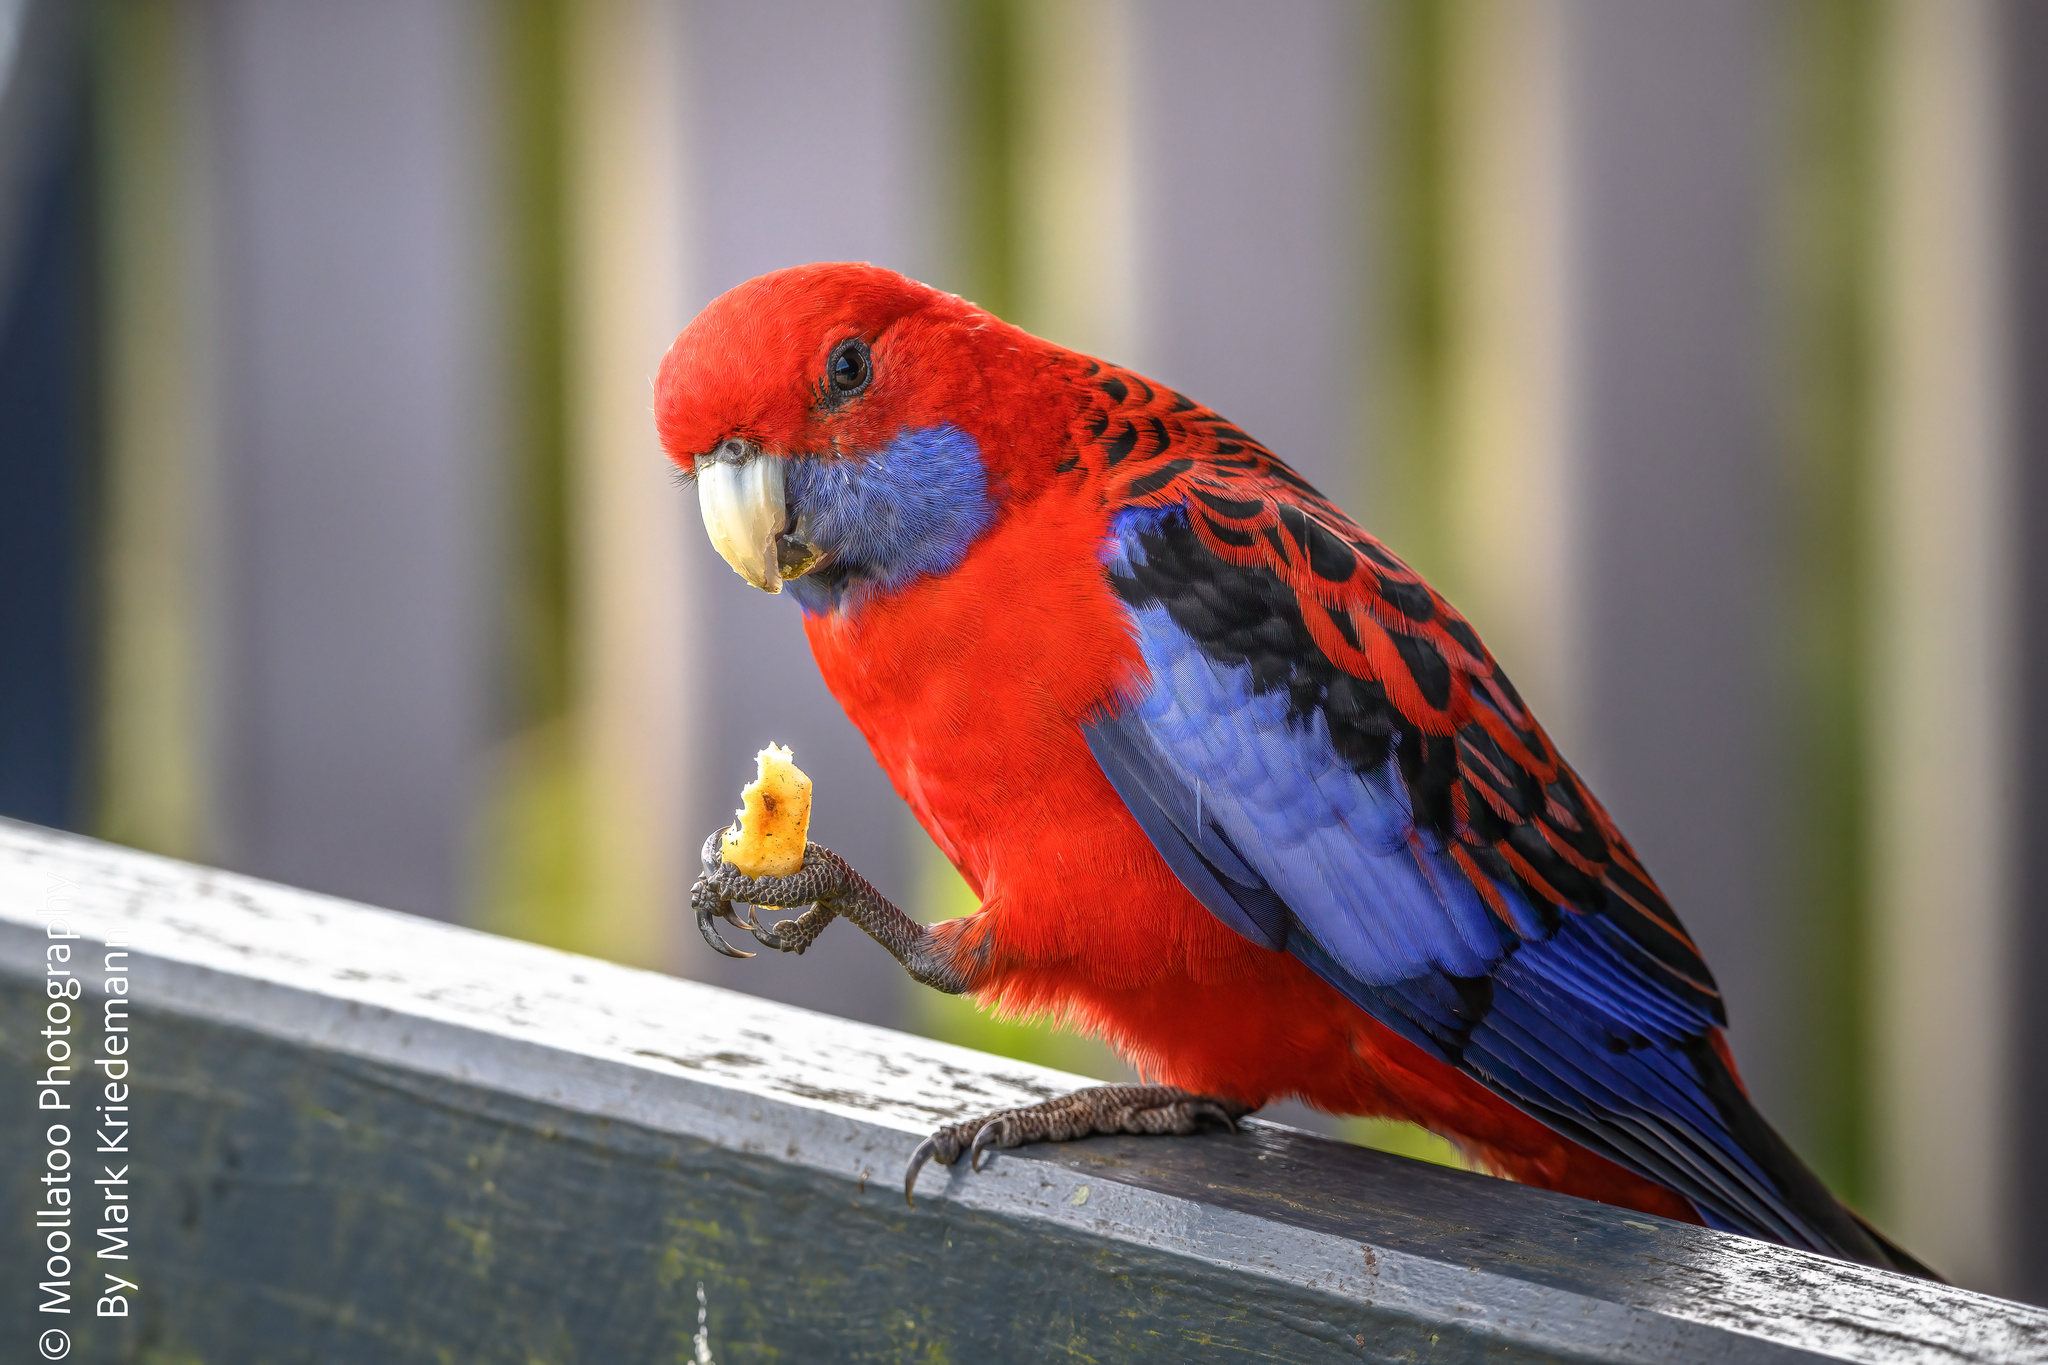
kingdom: Animalia
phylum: Chordata
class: Aves
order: Psittaciformes
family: Psittacidae
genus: Platycercus
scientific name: Platycercus elegans
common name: Crimson rosella
